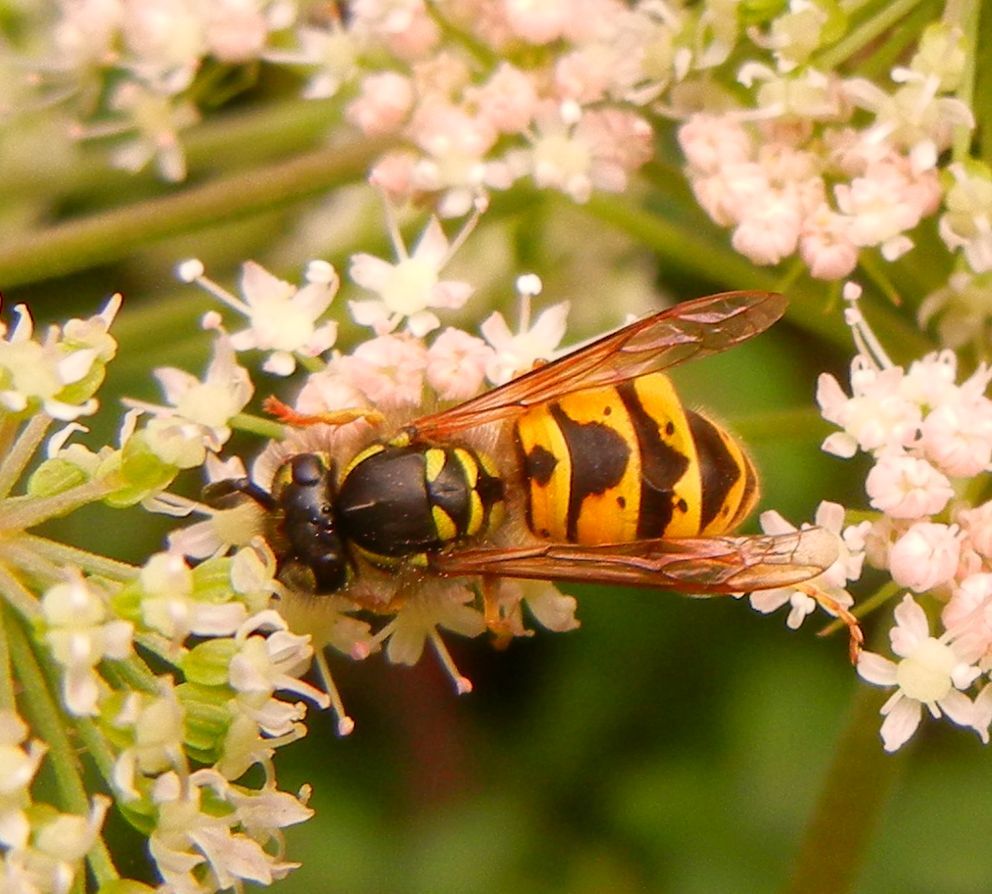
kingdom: Animalia
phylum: Arthropoda
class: Insecta
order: Hymenoptera
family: Vespidae
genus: Vespula
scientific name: Vespula vulgaris
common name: Common wasp
